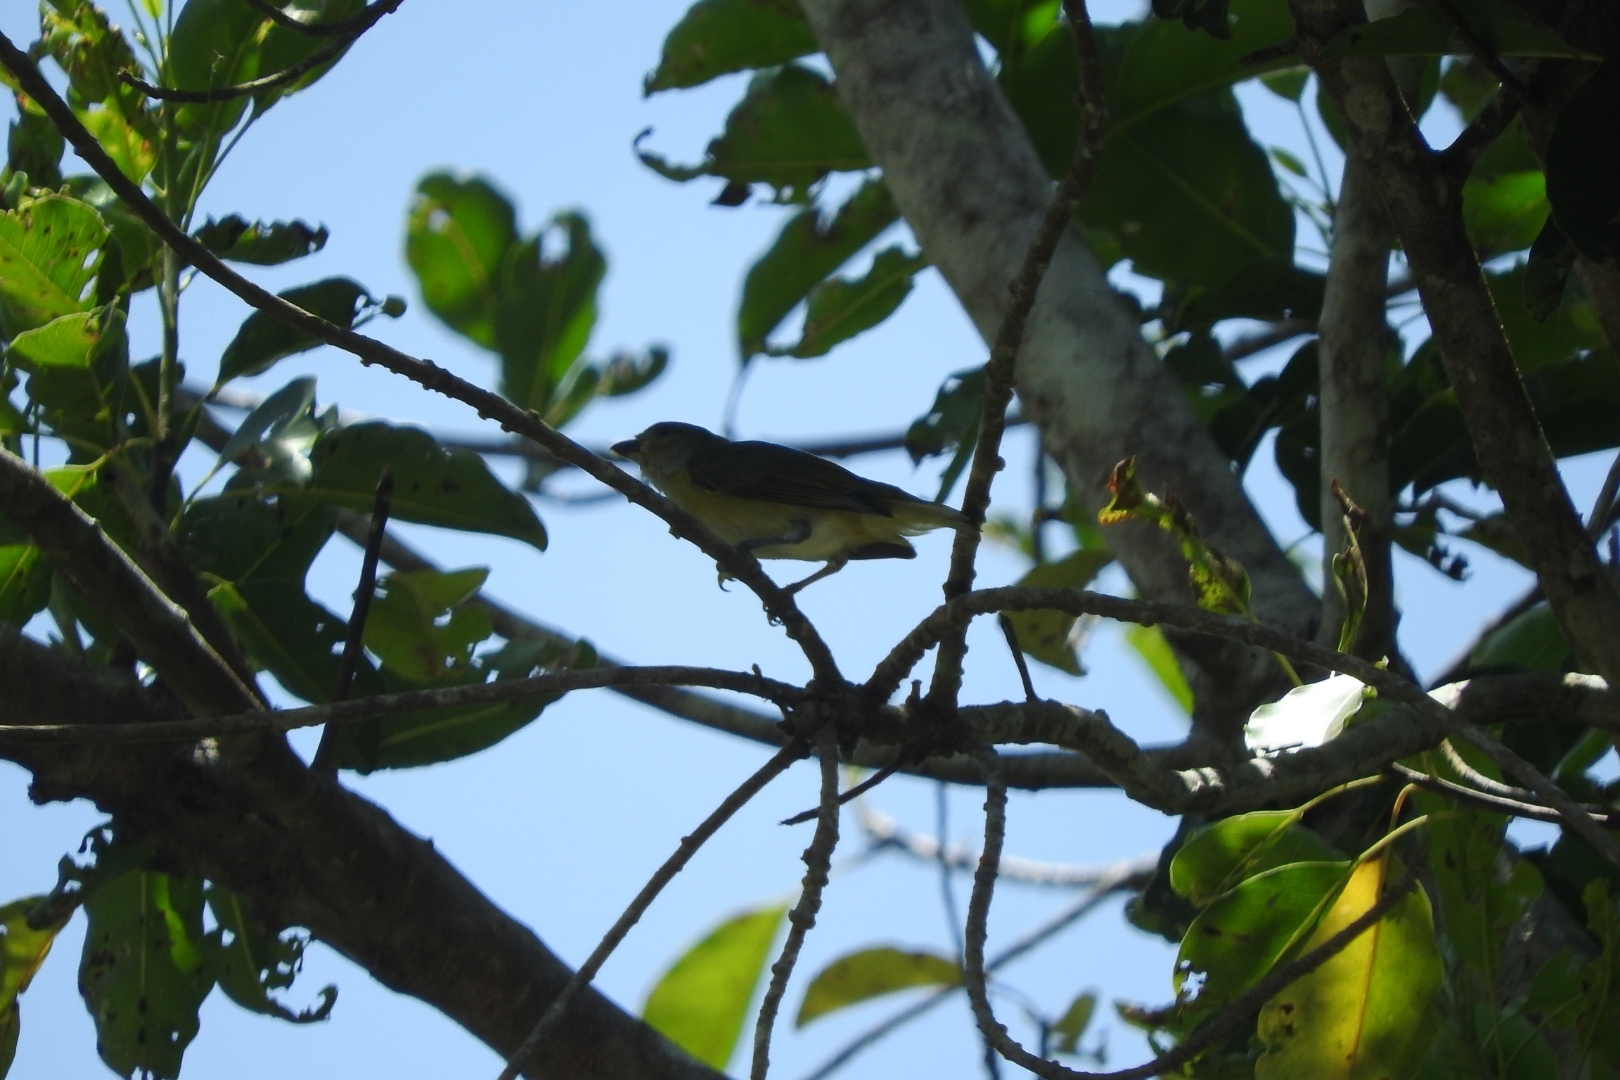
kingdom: Animalia
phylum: Chordata
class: Aves
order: Passeriformes
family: Vireonidae
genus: Cyclarhis
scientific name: Cyclarhis gujanensis
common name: Rufous-browed peppershrike
